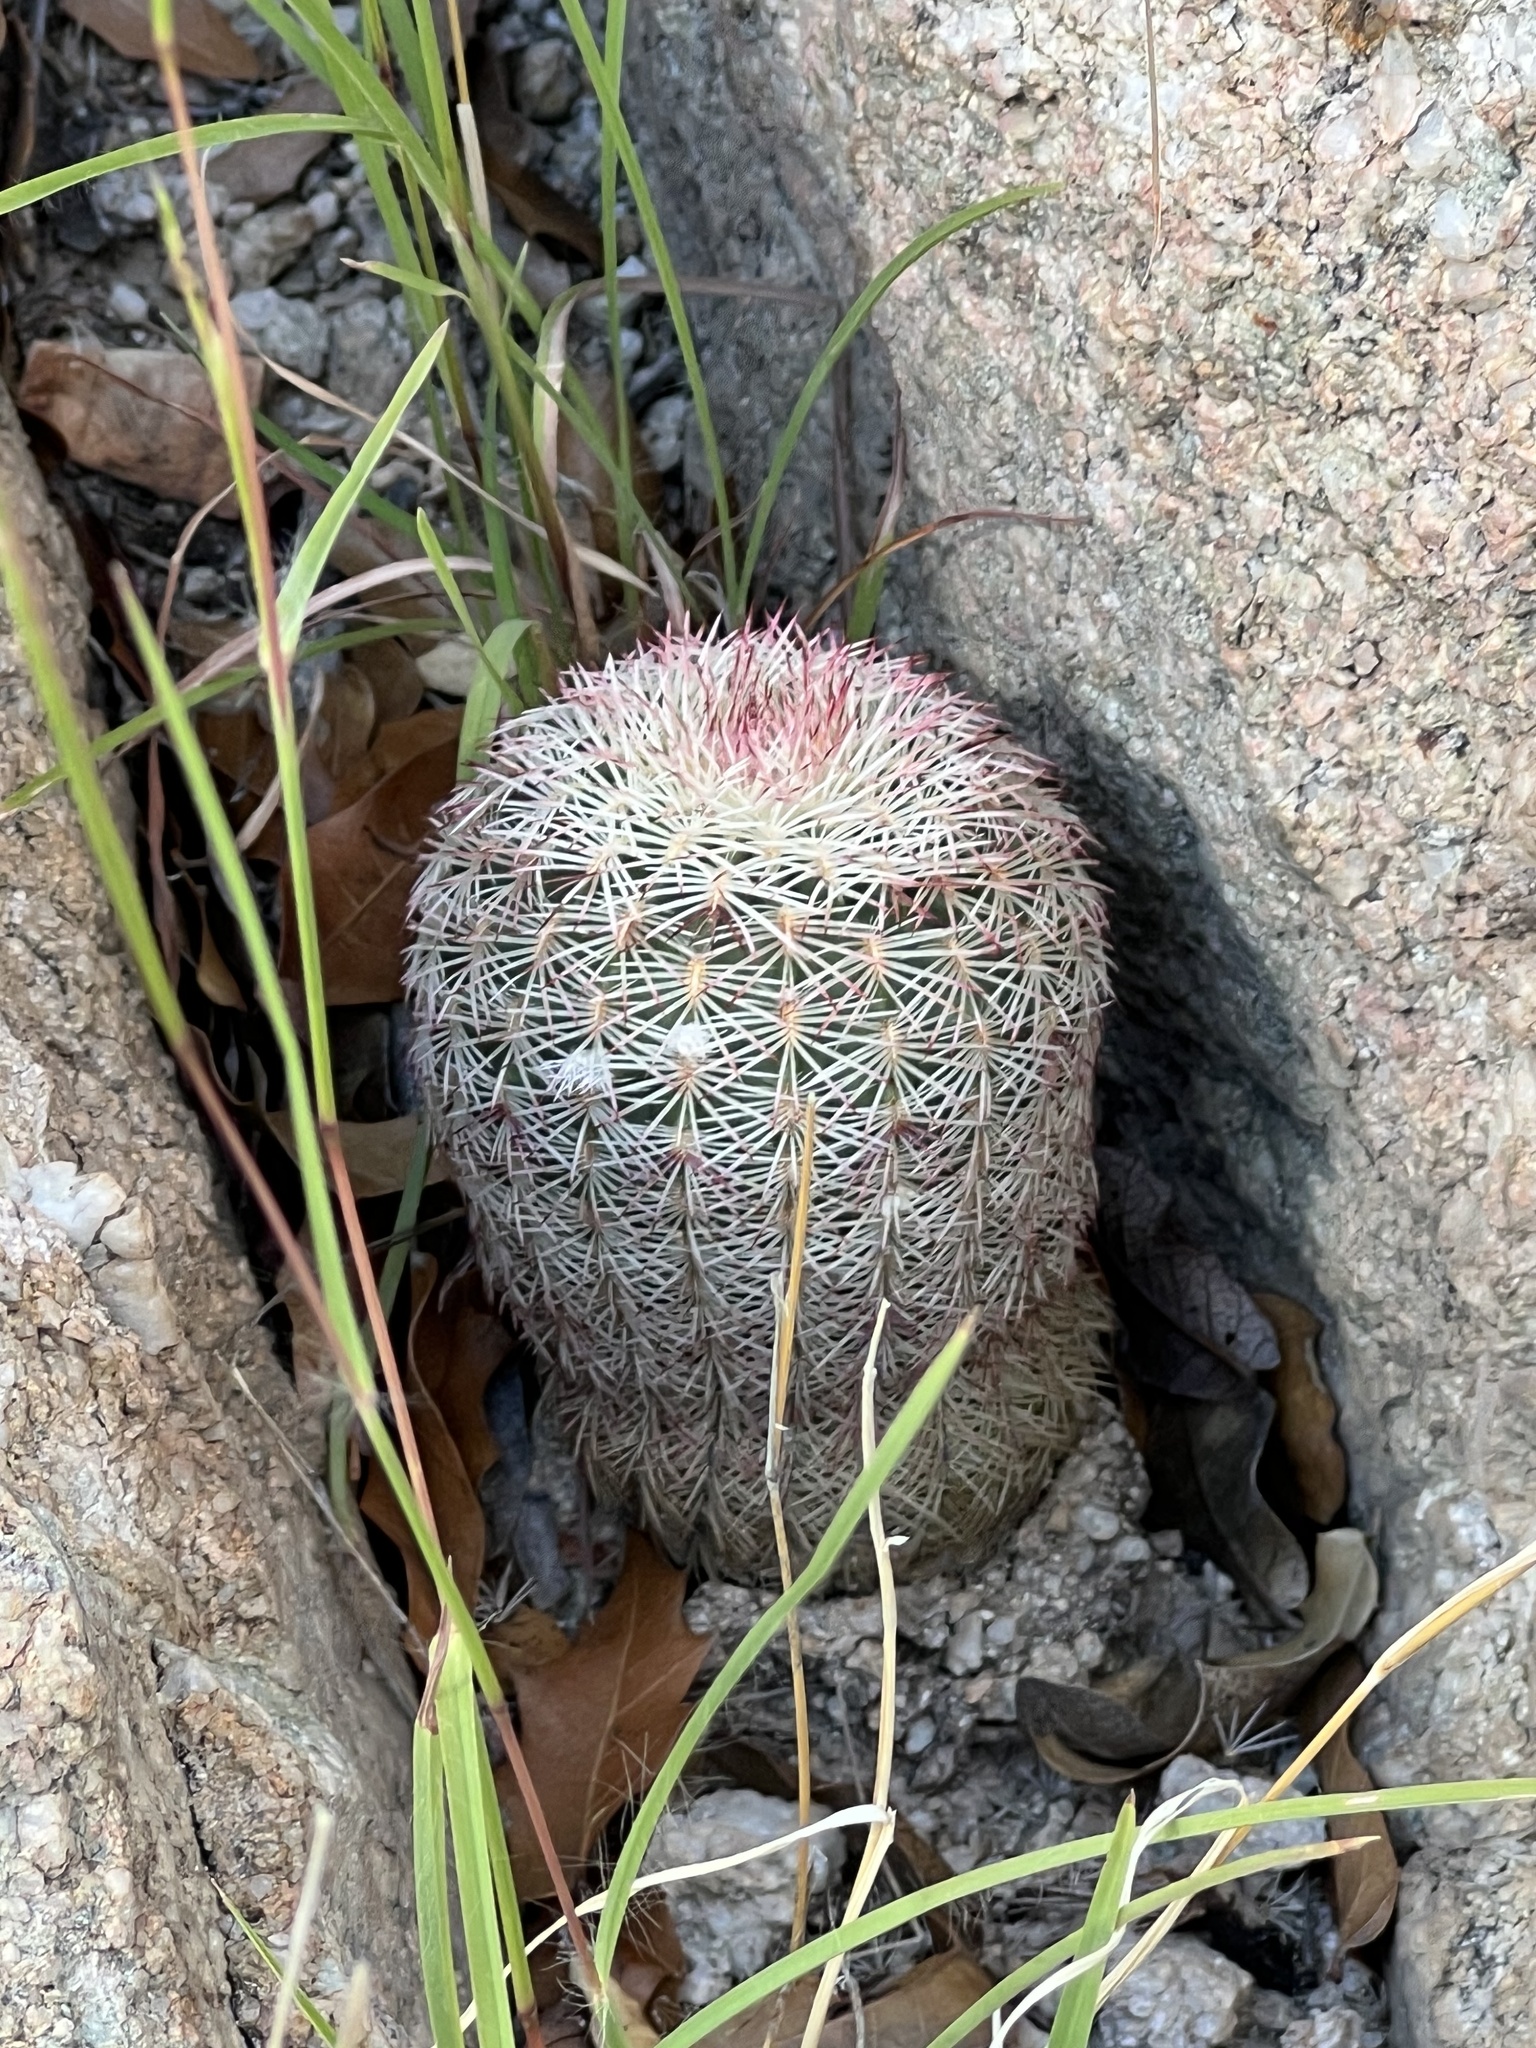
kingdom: Plantae
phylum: Tracheophyta
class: Magnoliopsida
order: Caryophyllales
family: Cactaceae
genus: Echinocereus
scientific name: Echinocereus rigidissimus
